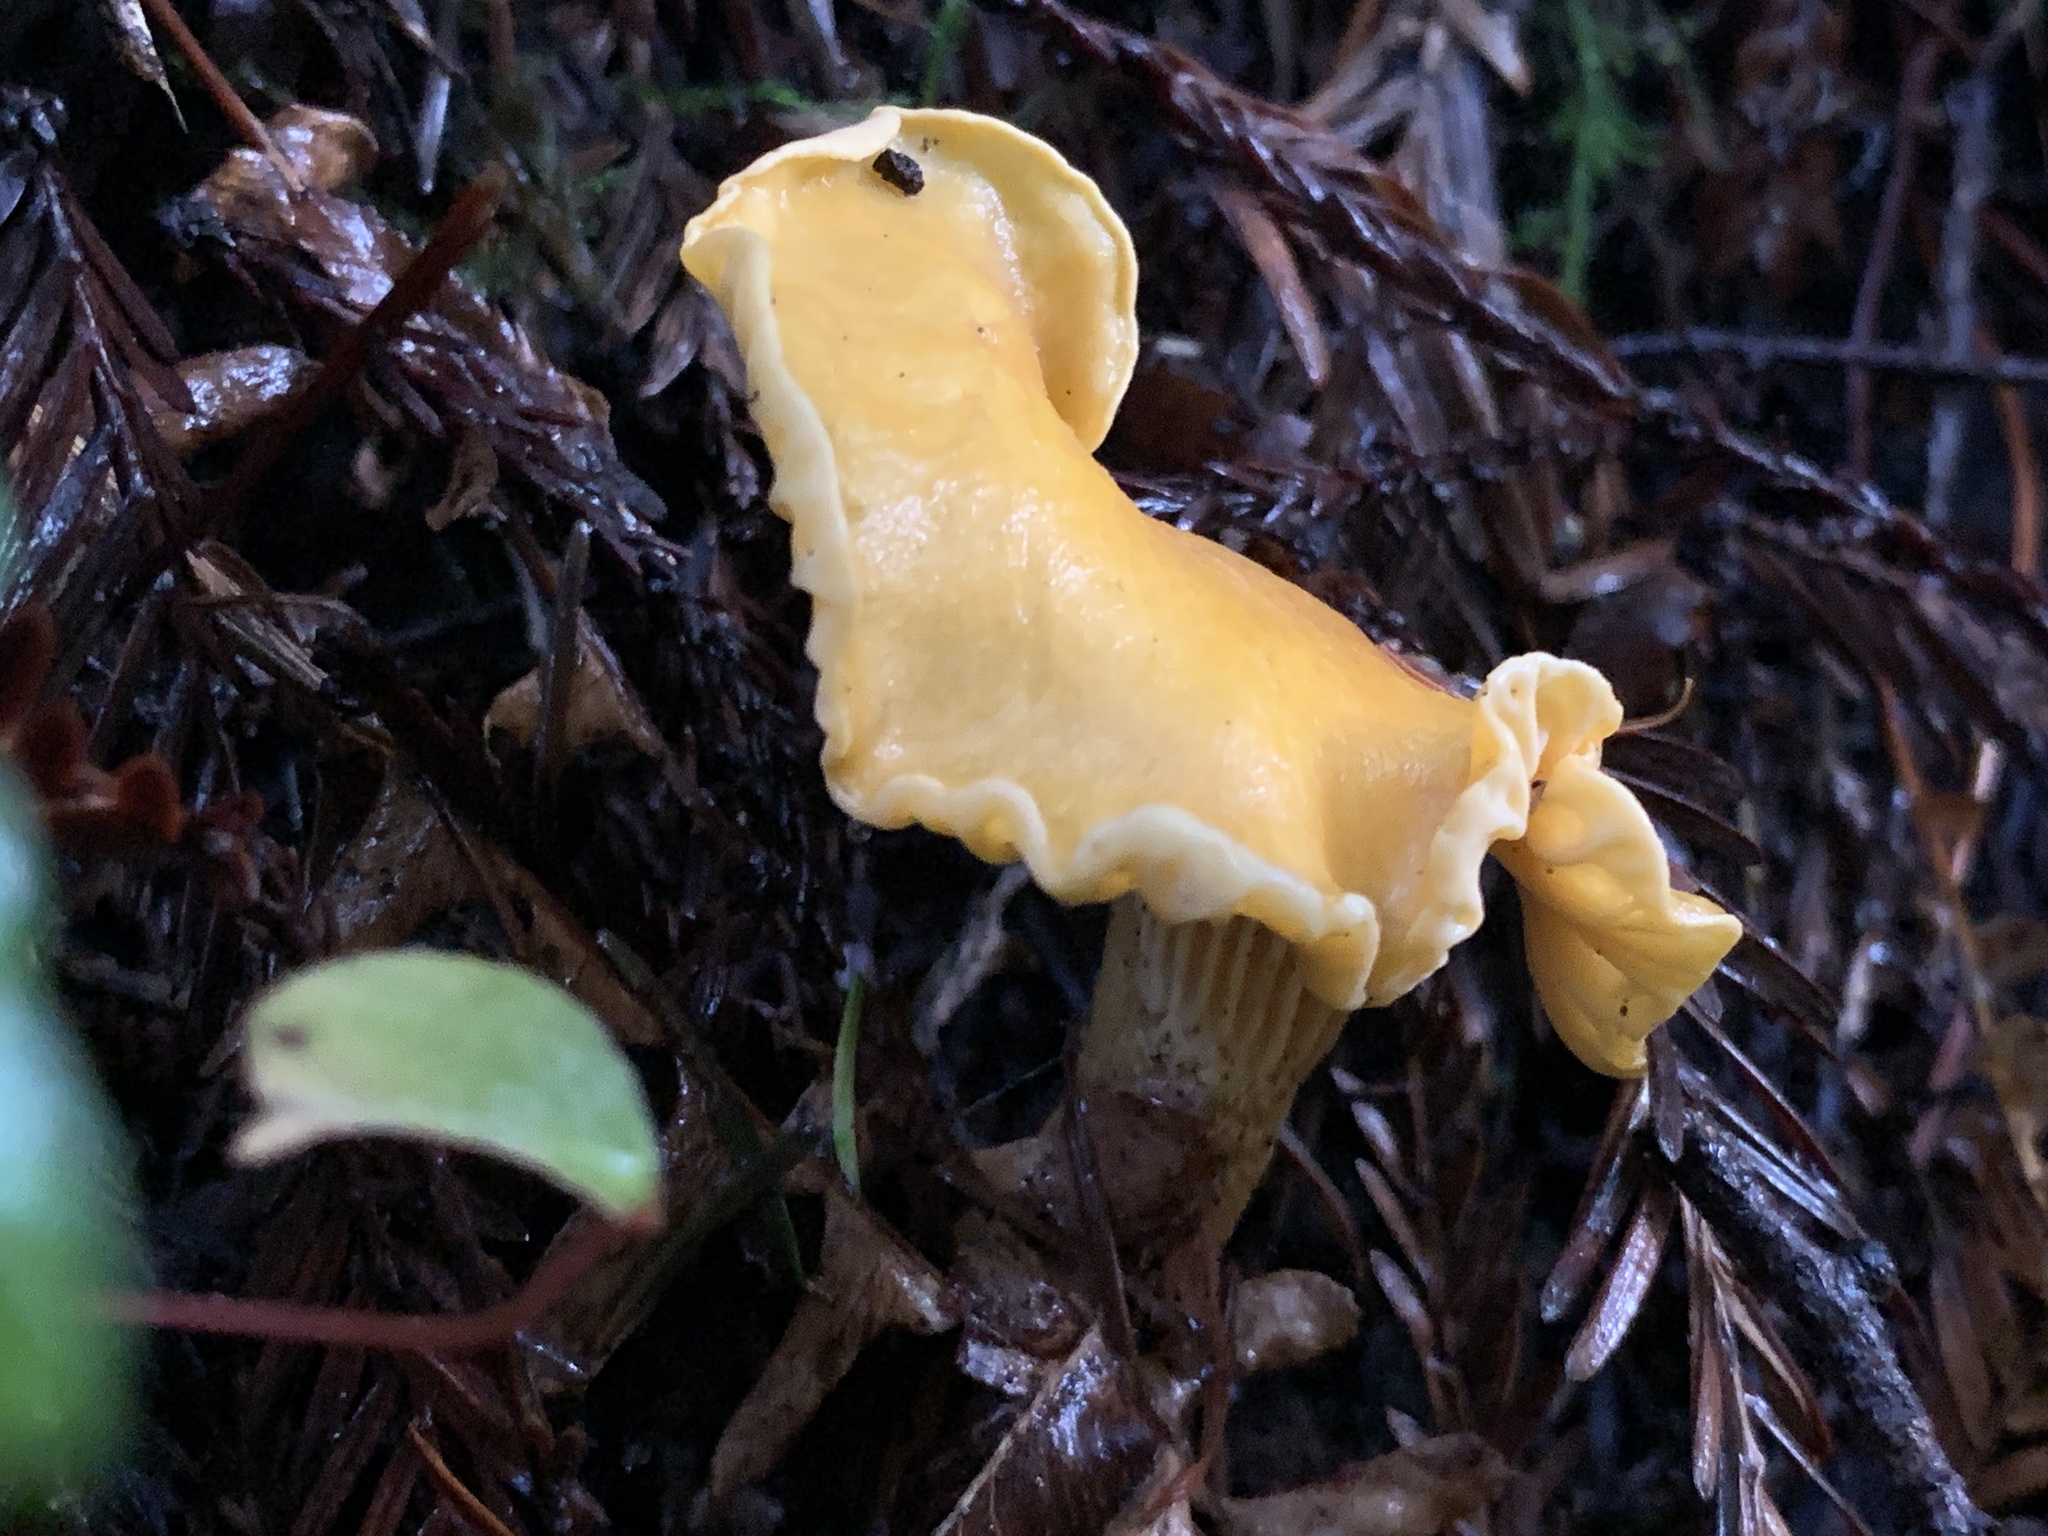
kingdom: Fungi
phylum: Basidiomycota
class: Agaricomycetes
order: Cantharellales
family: Hydnaceae
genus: Cantharellus
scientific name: Cantharellus formosus
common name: Pacific golden chanterelle
